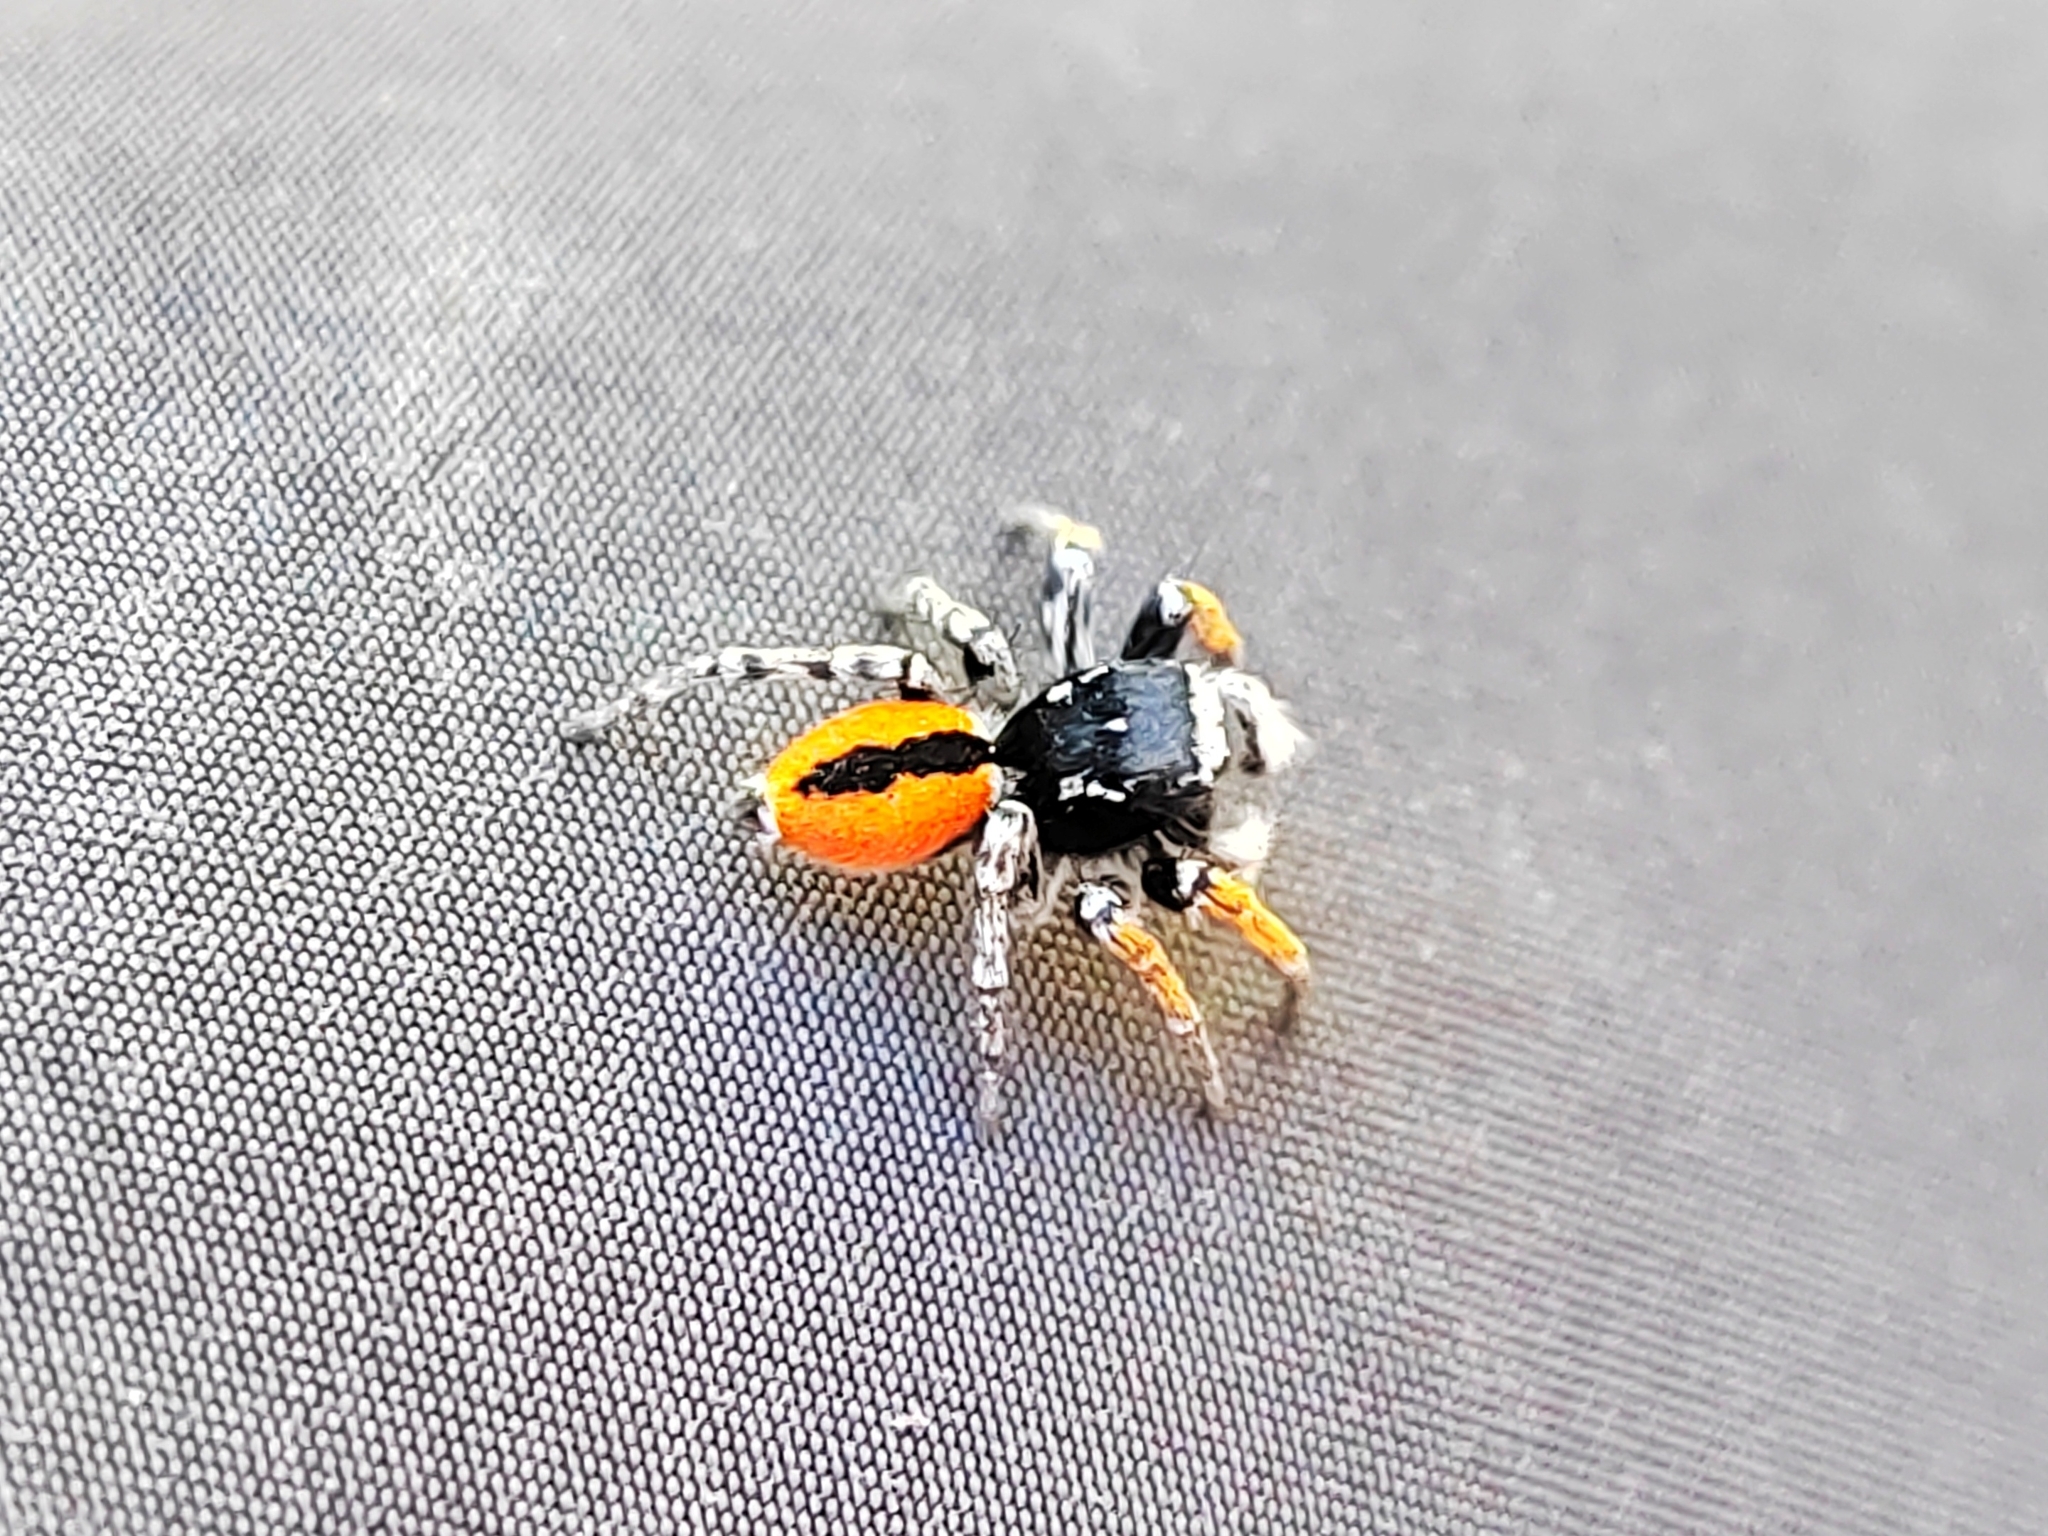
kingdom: Animalia
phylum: Arthropoda
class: Arachnida
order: Araneae
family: Salticidae
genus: Philaeus
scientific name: Philaeus chrysops
